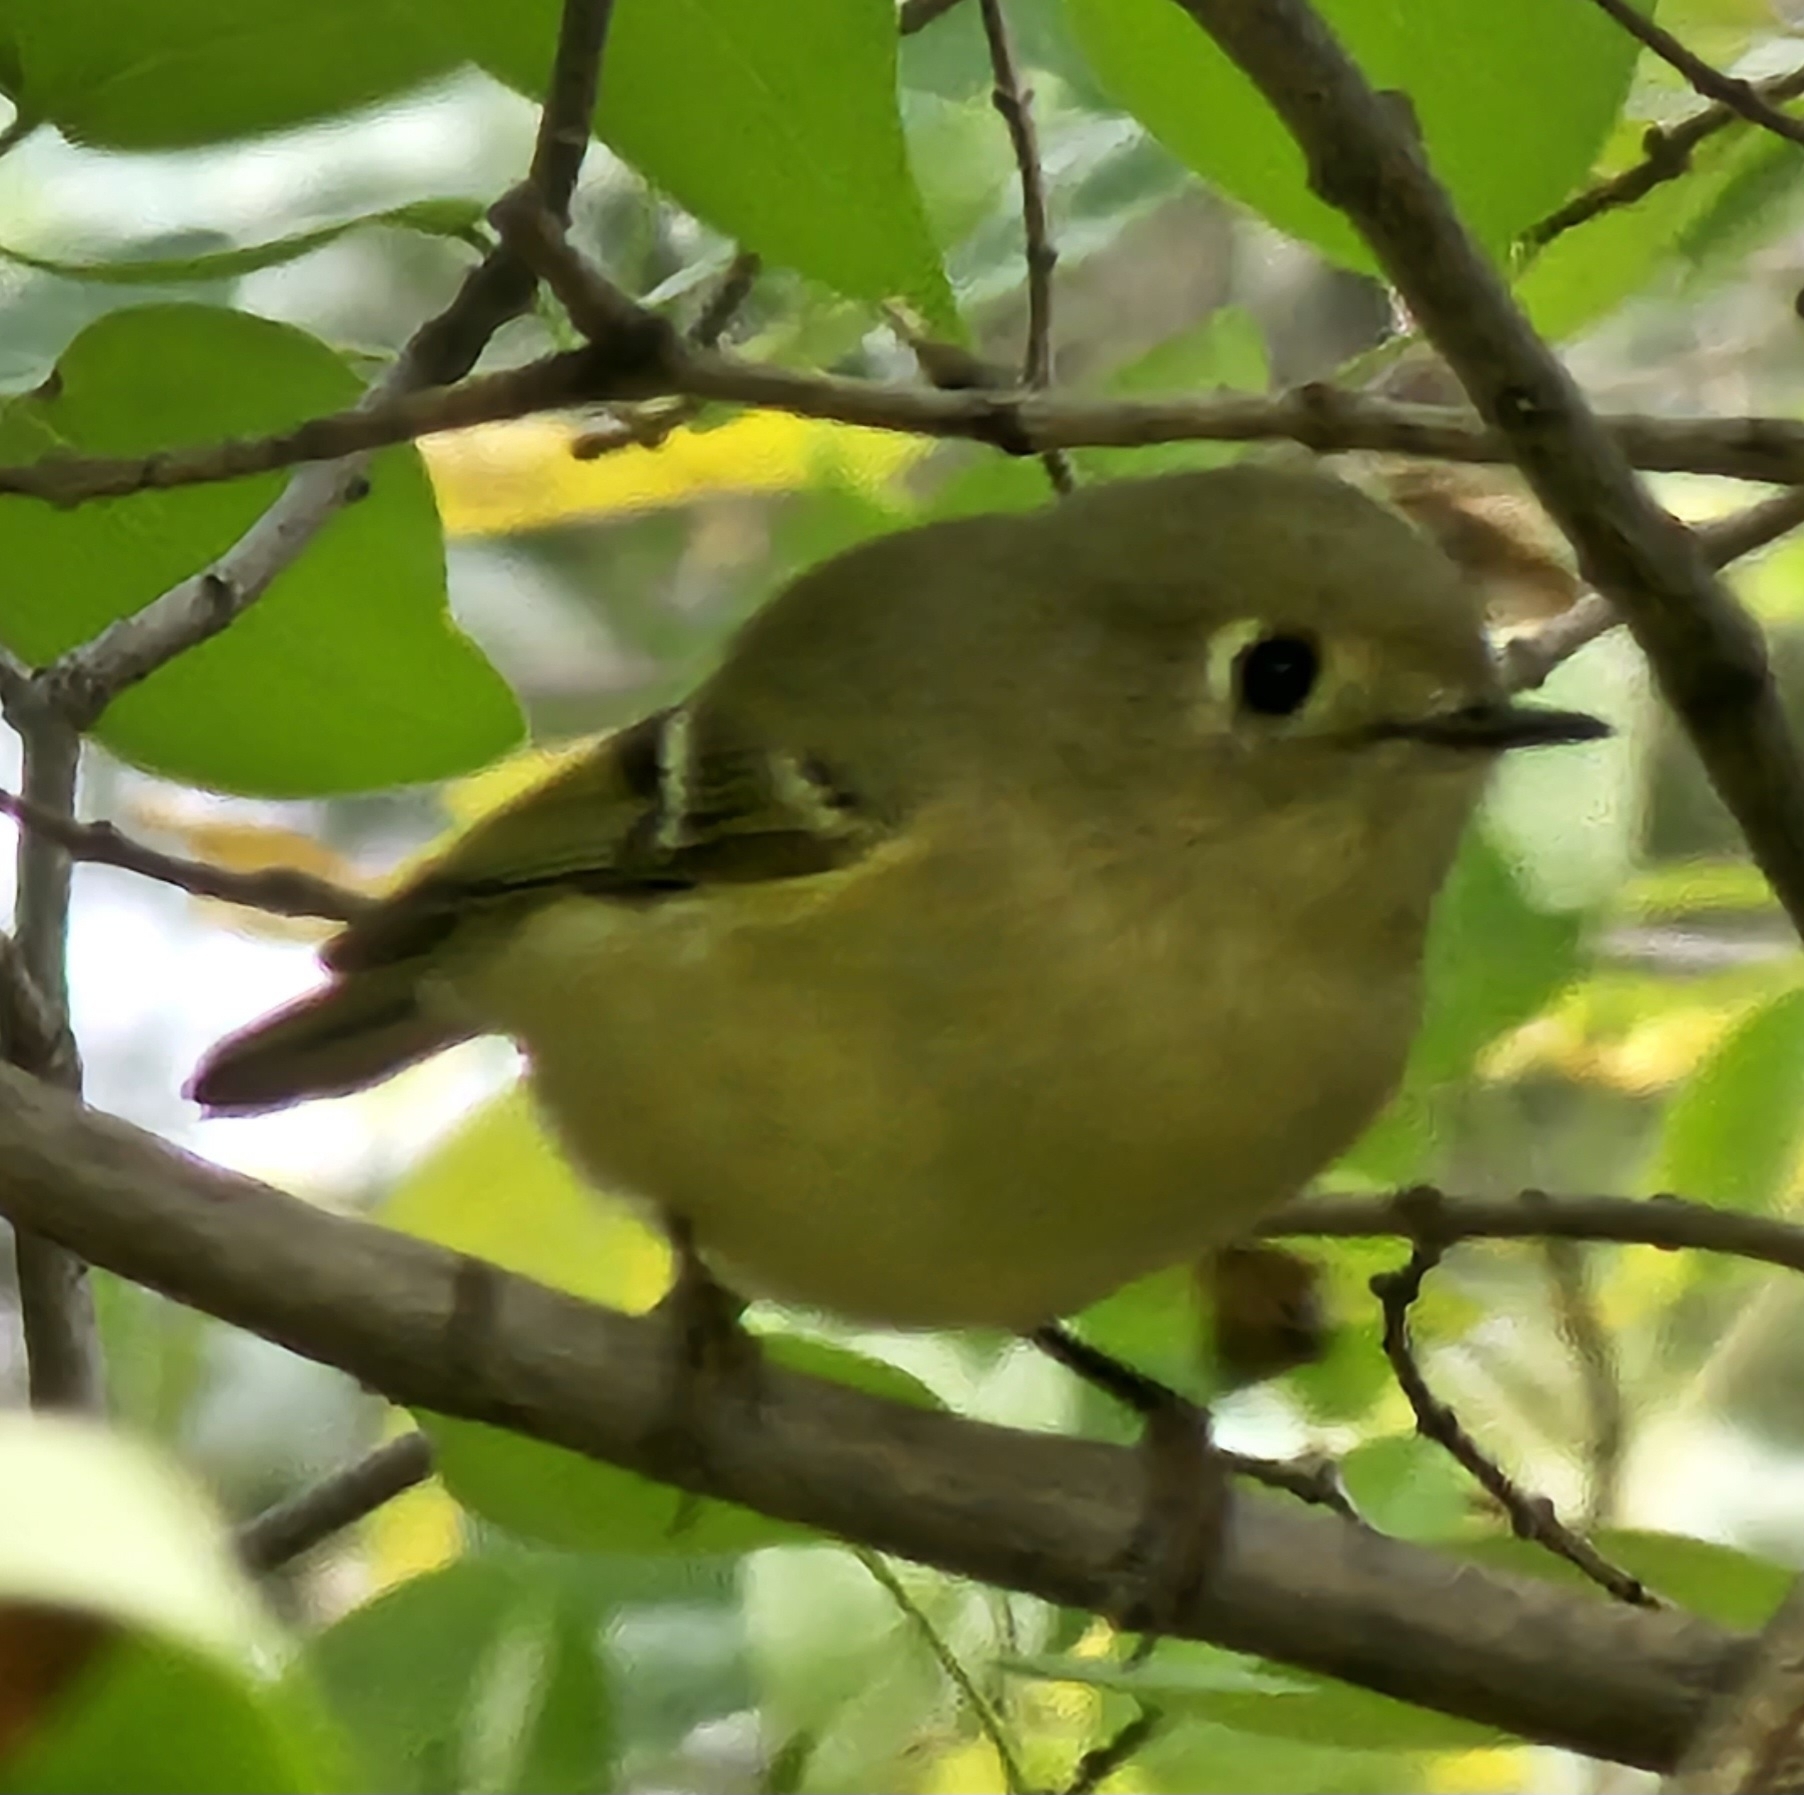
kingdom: Animalia
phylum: Chordata
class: Aves
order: Passeriformes
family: Regulidae
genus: Regulus
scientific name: Regulus calendula
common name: Ruby-crowned kinglet
